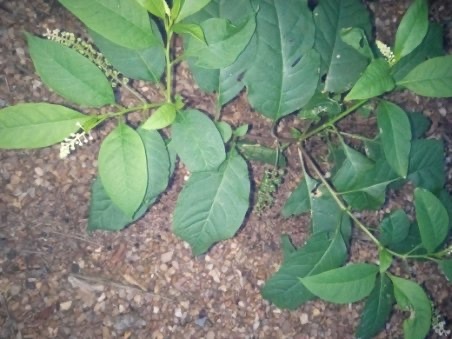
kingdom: Plantae
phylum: Tracheophyta
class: Magnoliopsida
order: Caryophyllales
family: Phytolaccaceae
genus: Phytolacca
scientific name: Phytolacca americana
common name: American pokeweed
